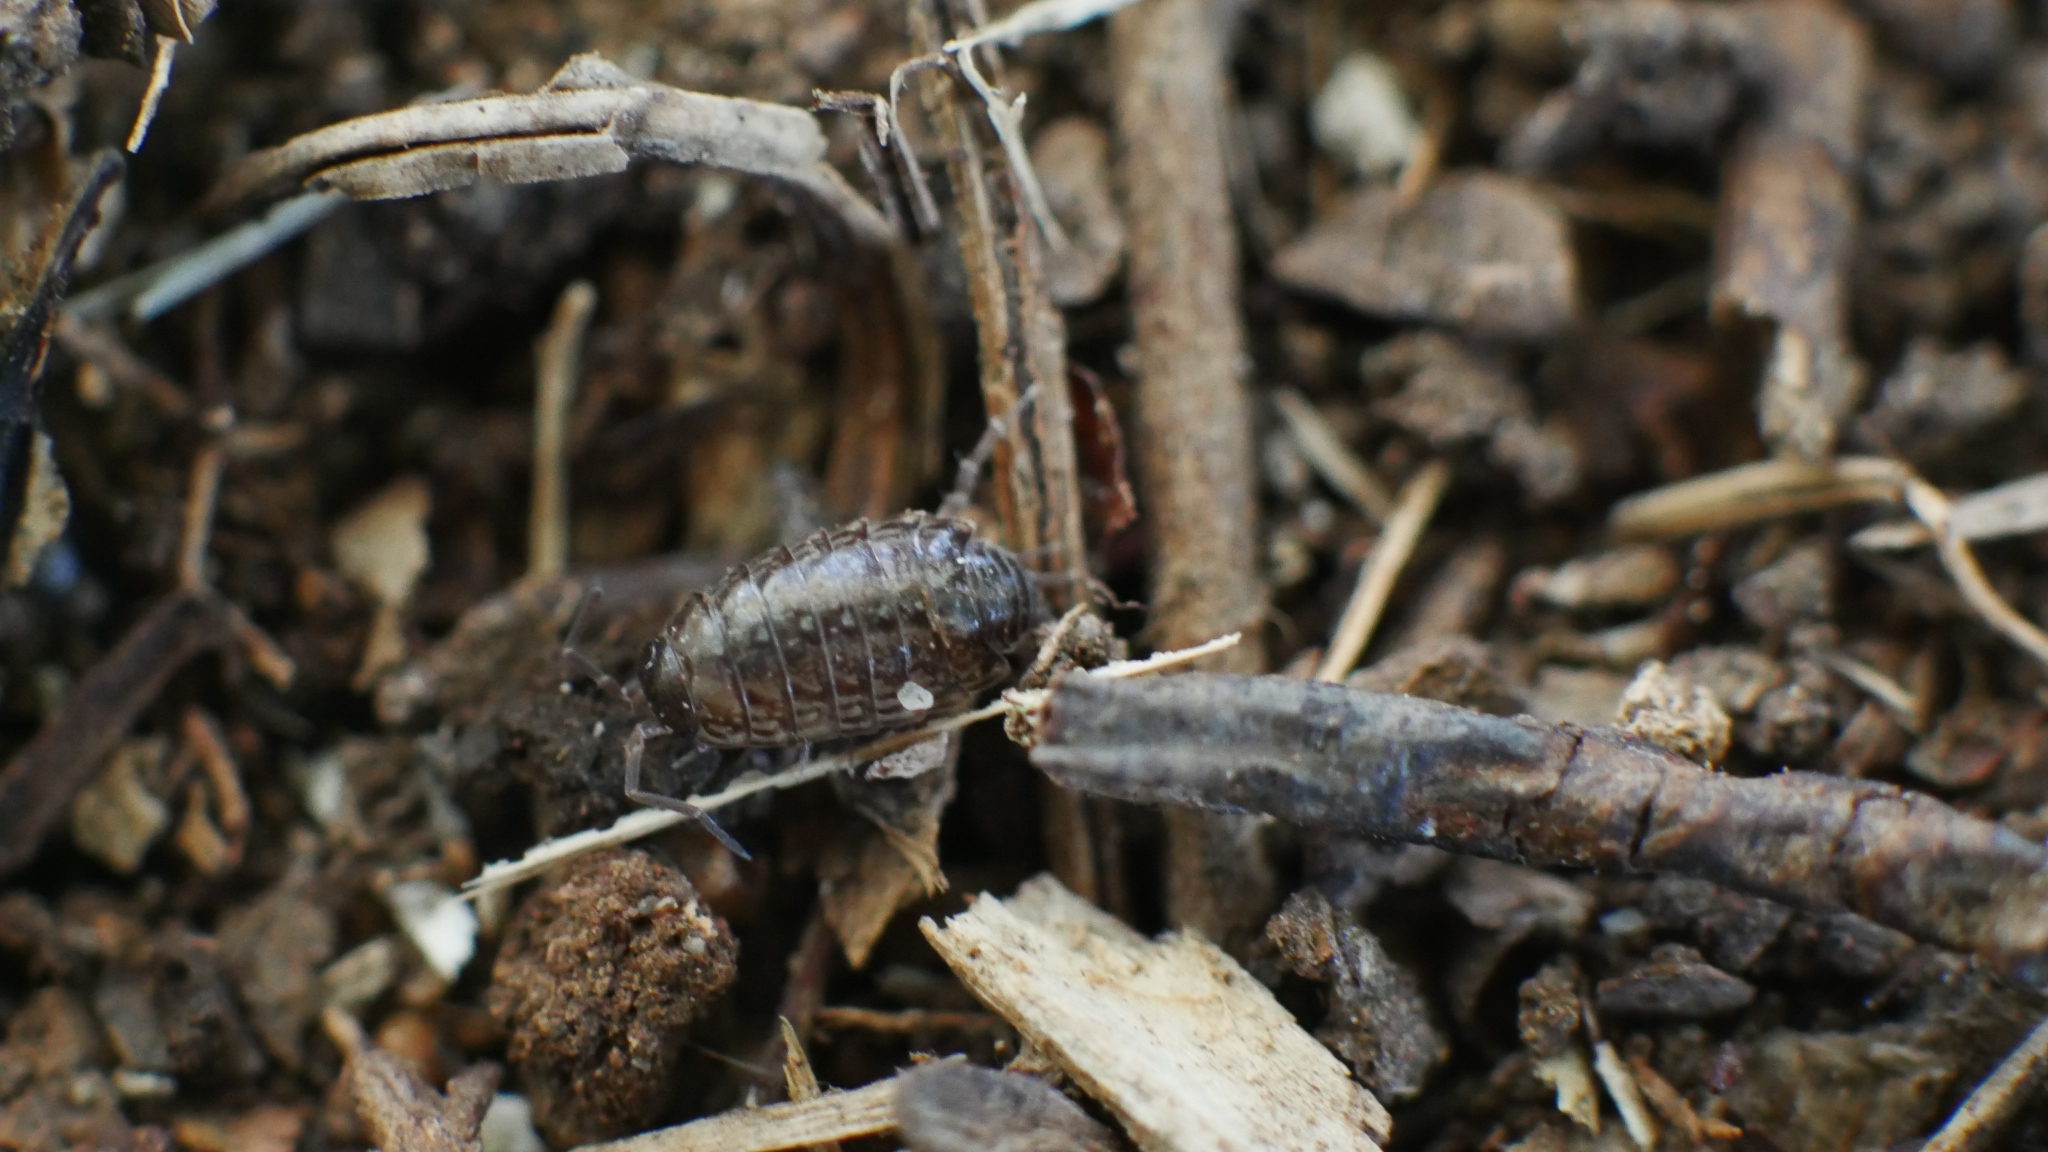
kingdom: Animalia
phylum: Arthropoda
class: Malacostraca
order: Isopoda
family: Philosciidae
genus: Philoscia
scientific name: Philoscia muscorum
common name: Common striped woodlouse
